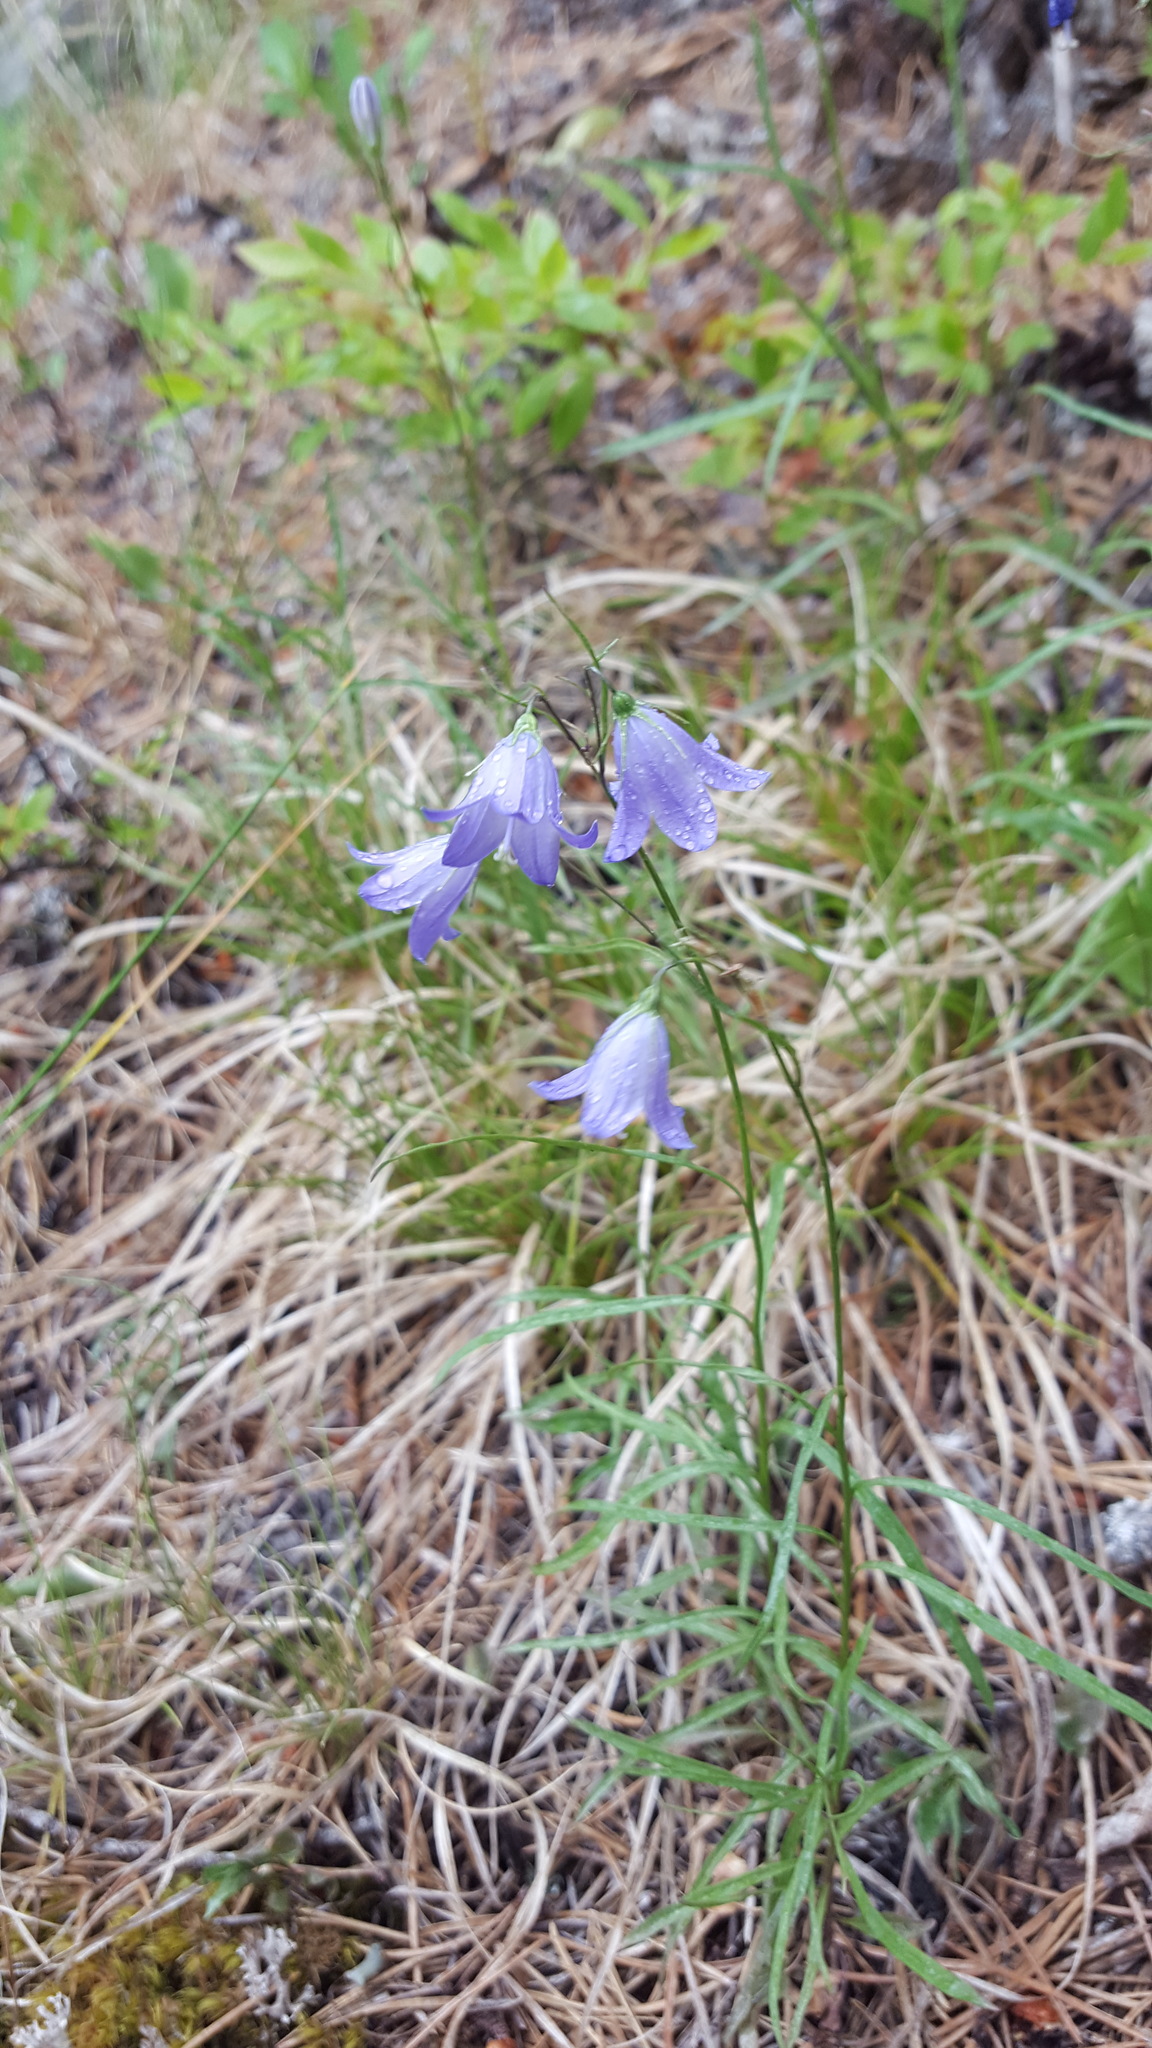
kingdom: Plantae
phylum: Tracheophyta
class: Magnoliopsida
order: Asterales
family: Campanulaceae
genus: Campanula
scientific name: Campanula intercedens
